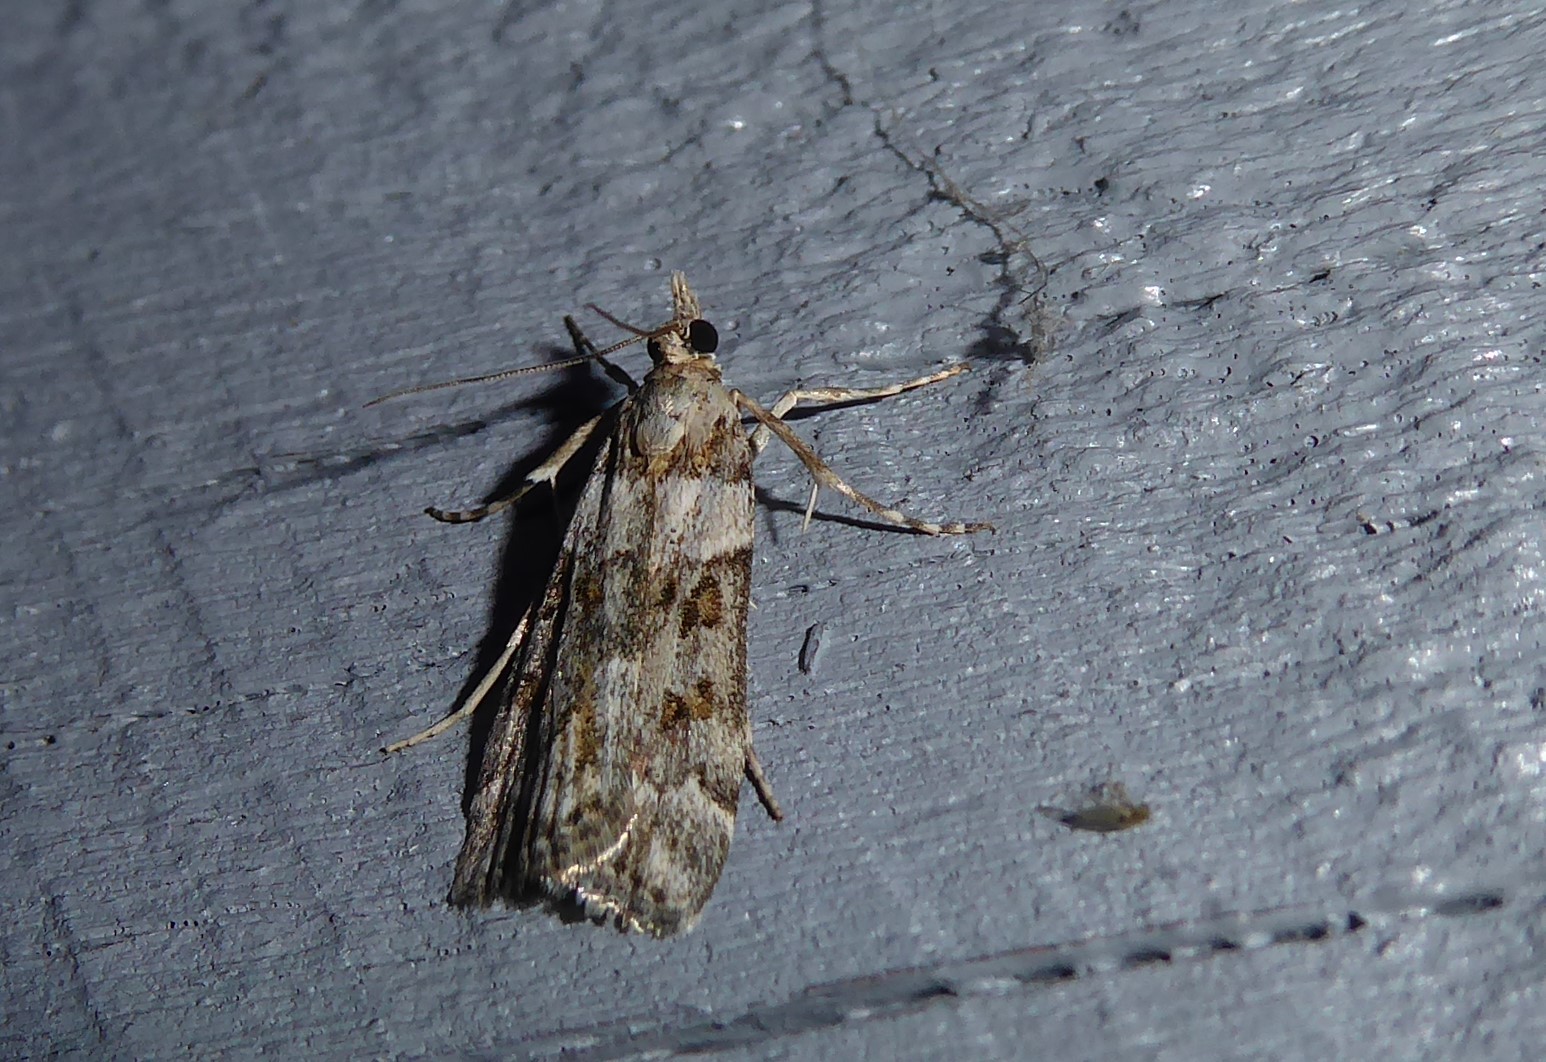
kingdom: Animalia
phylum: Arthropoda
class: Insecta
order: Lepidoptera
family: Crambidae
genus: Eudonia
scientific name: Eudonia diphtheralis
